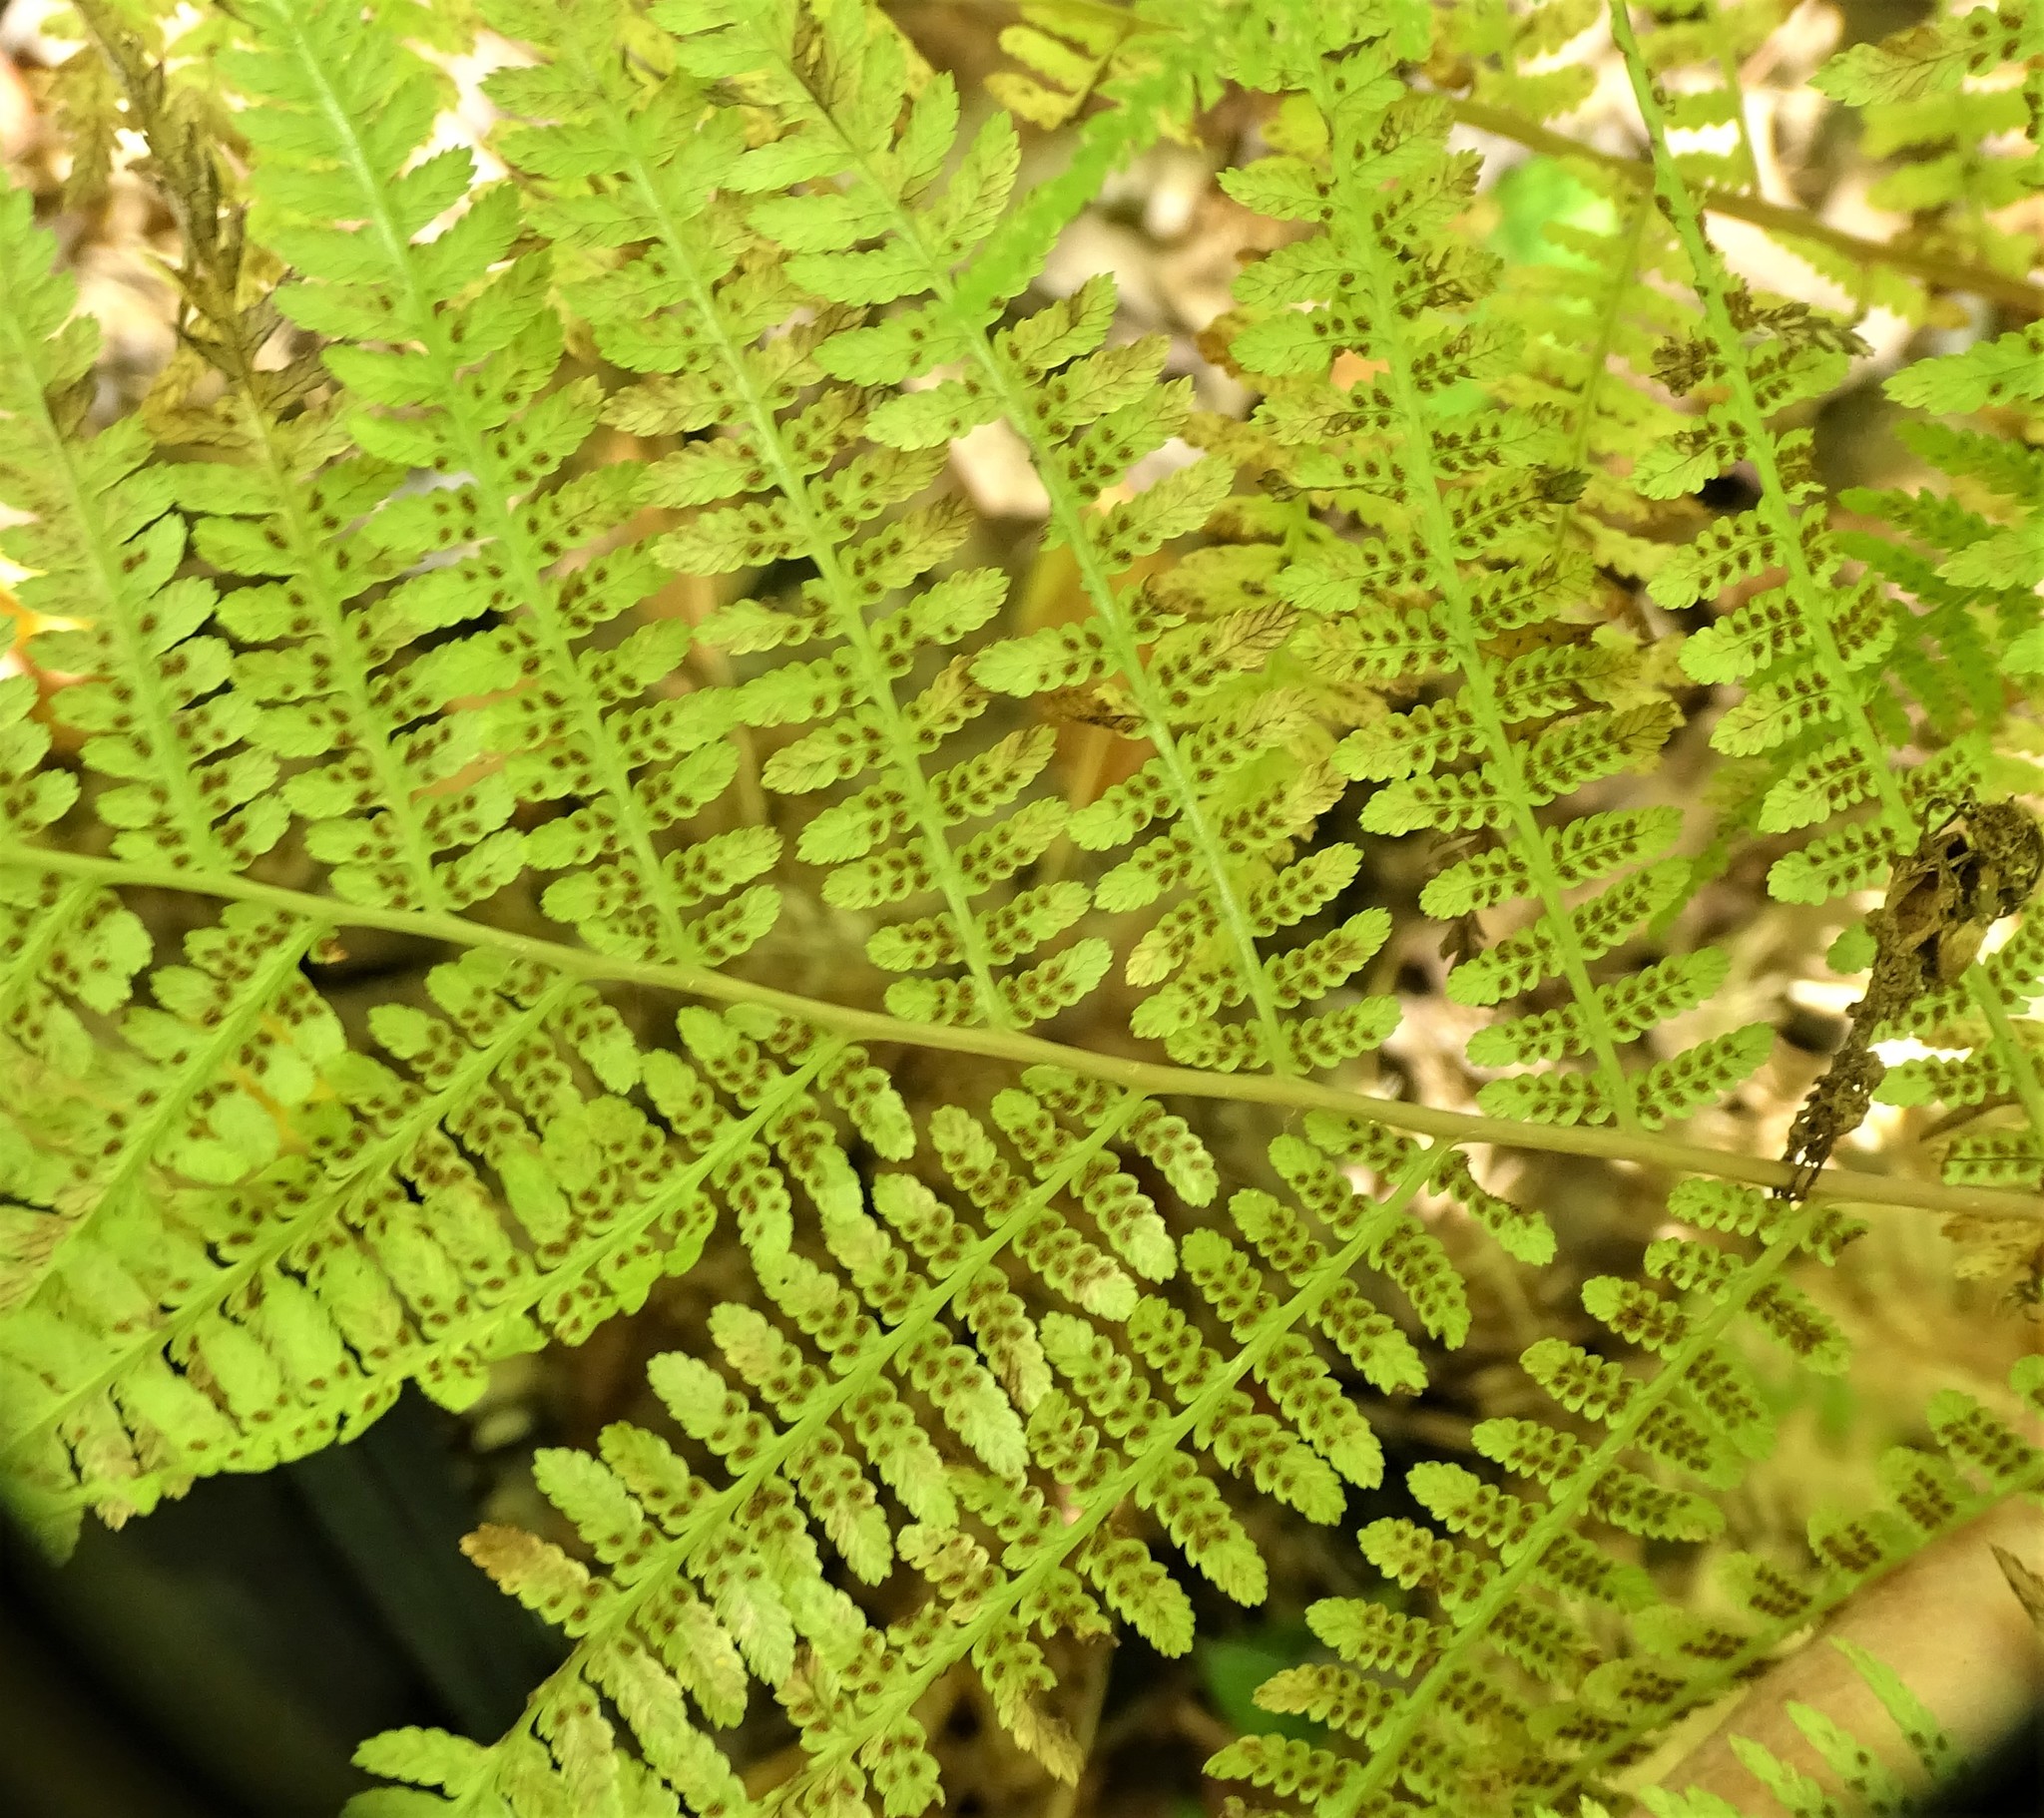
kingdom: Plantae
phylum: Tracheophyta
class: Polypodiopsida
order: Polypodiales
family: Athyriaceae
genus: Athyrium
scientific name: Athyrium angustum
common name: Northern lady fern
